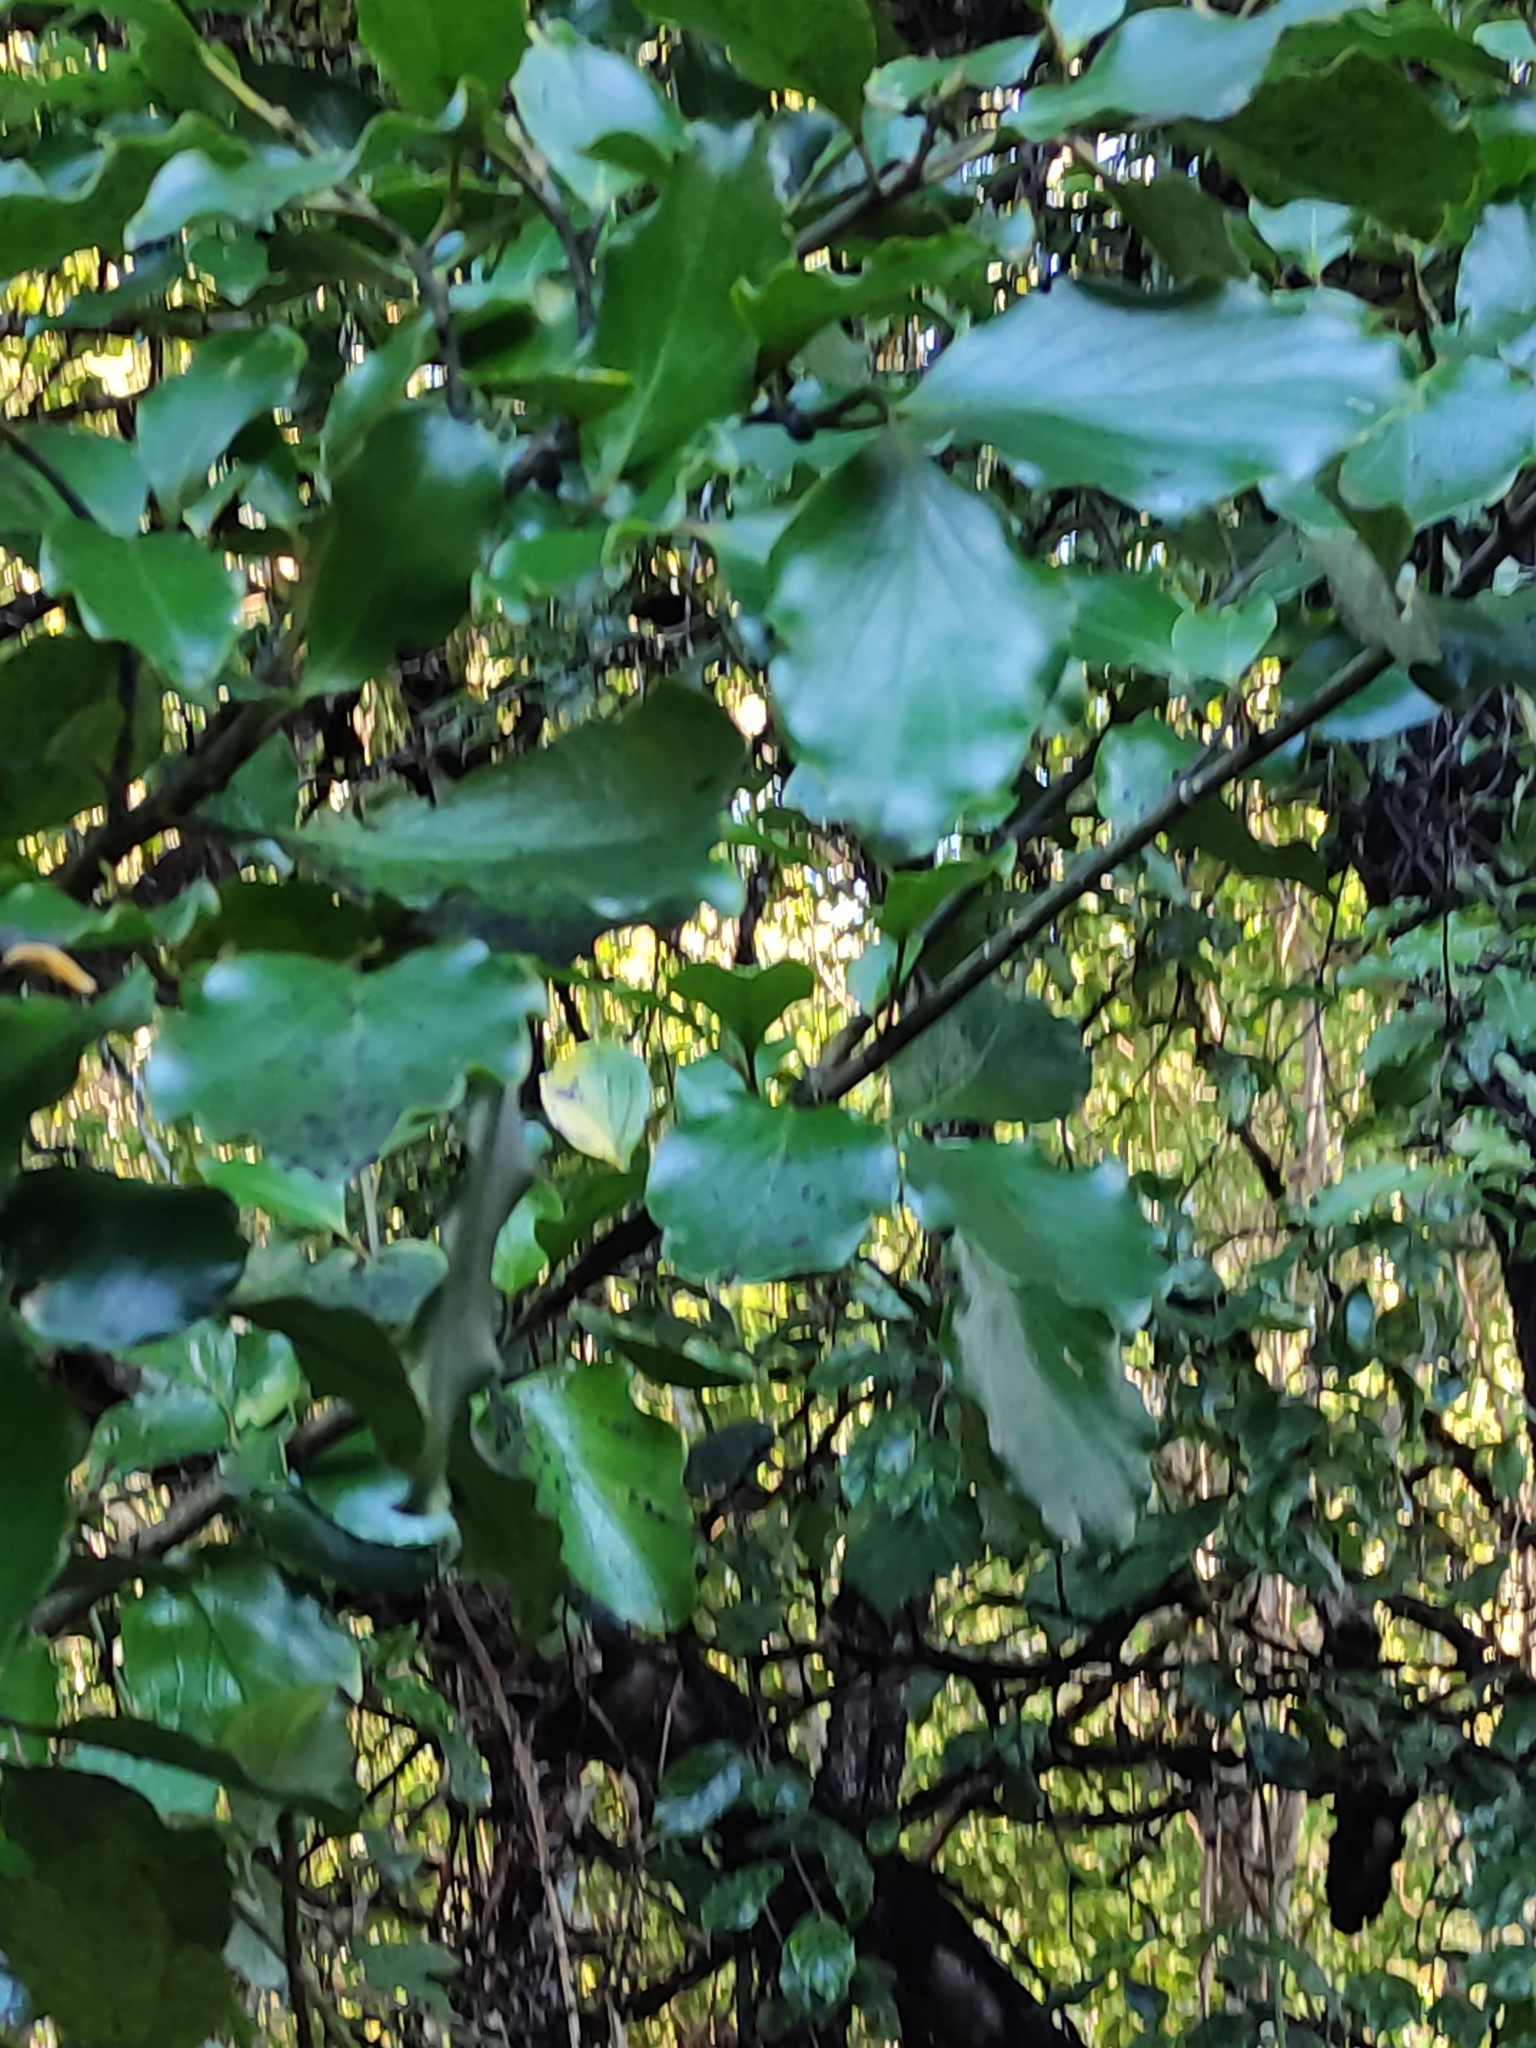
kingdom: Plantae
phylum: Tracheophyta
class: Magnoliopsida
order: Apiales
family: Griseliniaceae
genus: Griselinia
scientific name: Griselinia littoralis
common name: New zealand broadleaf
